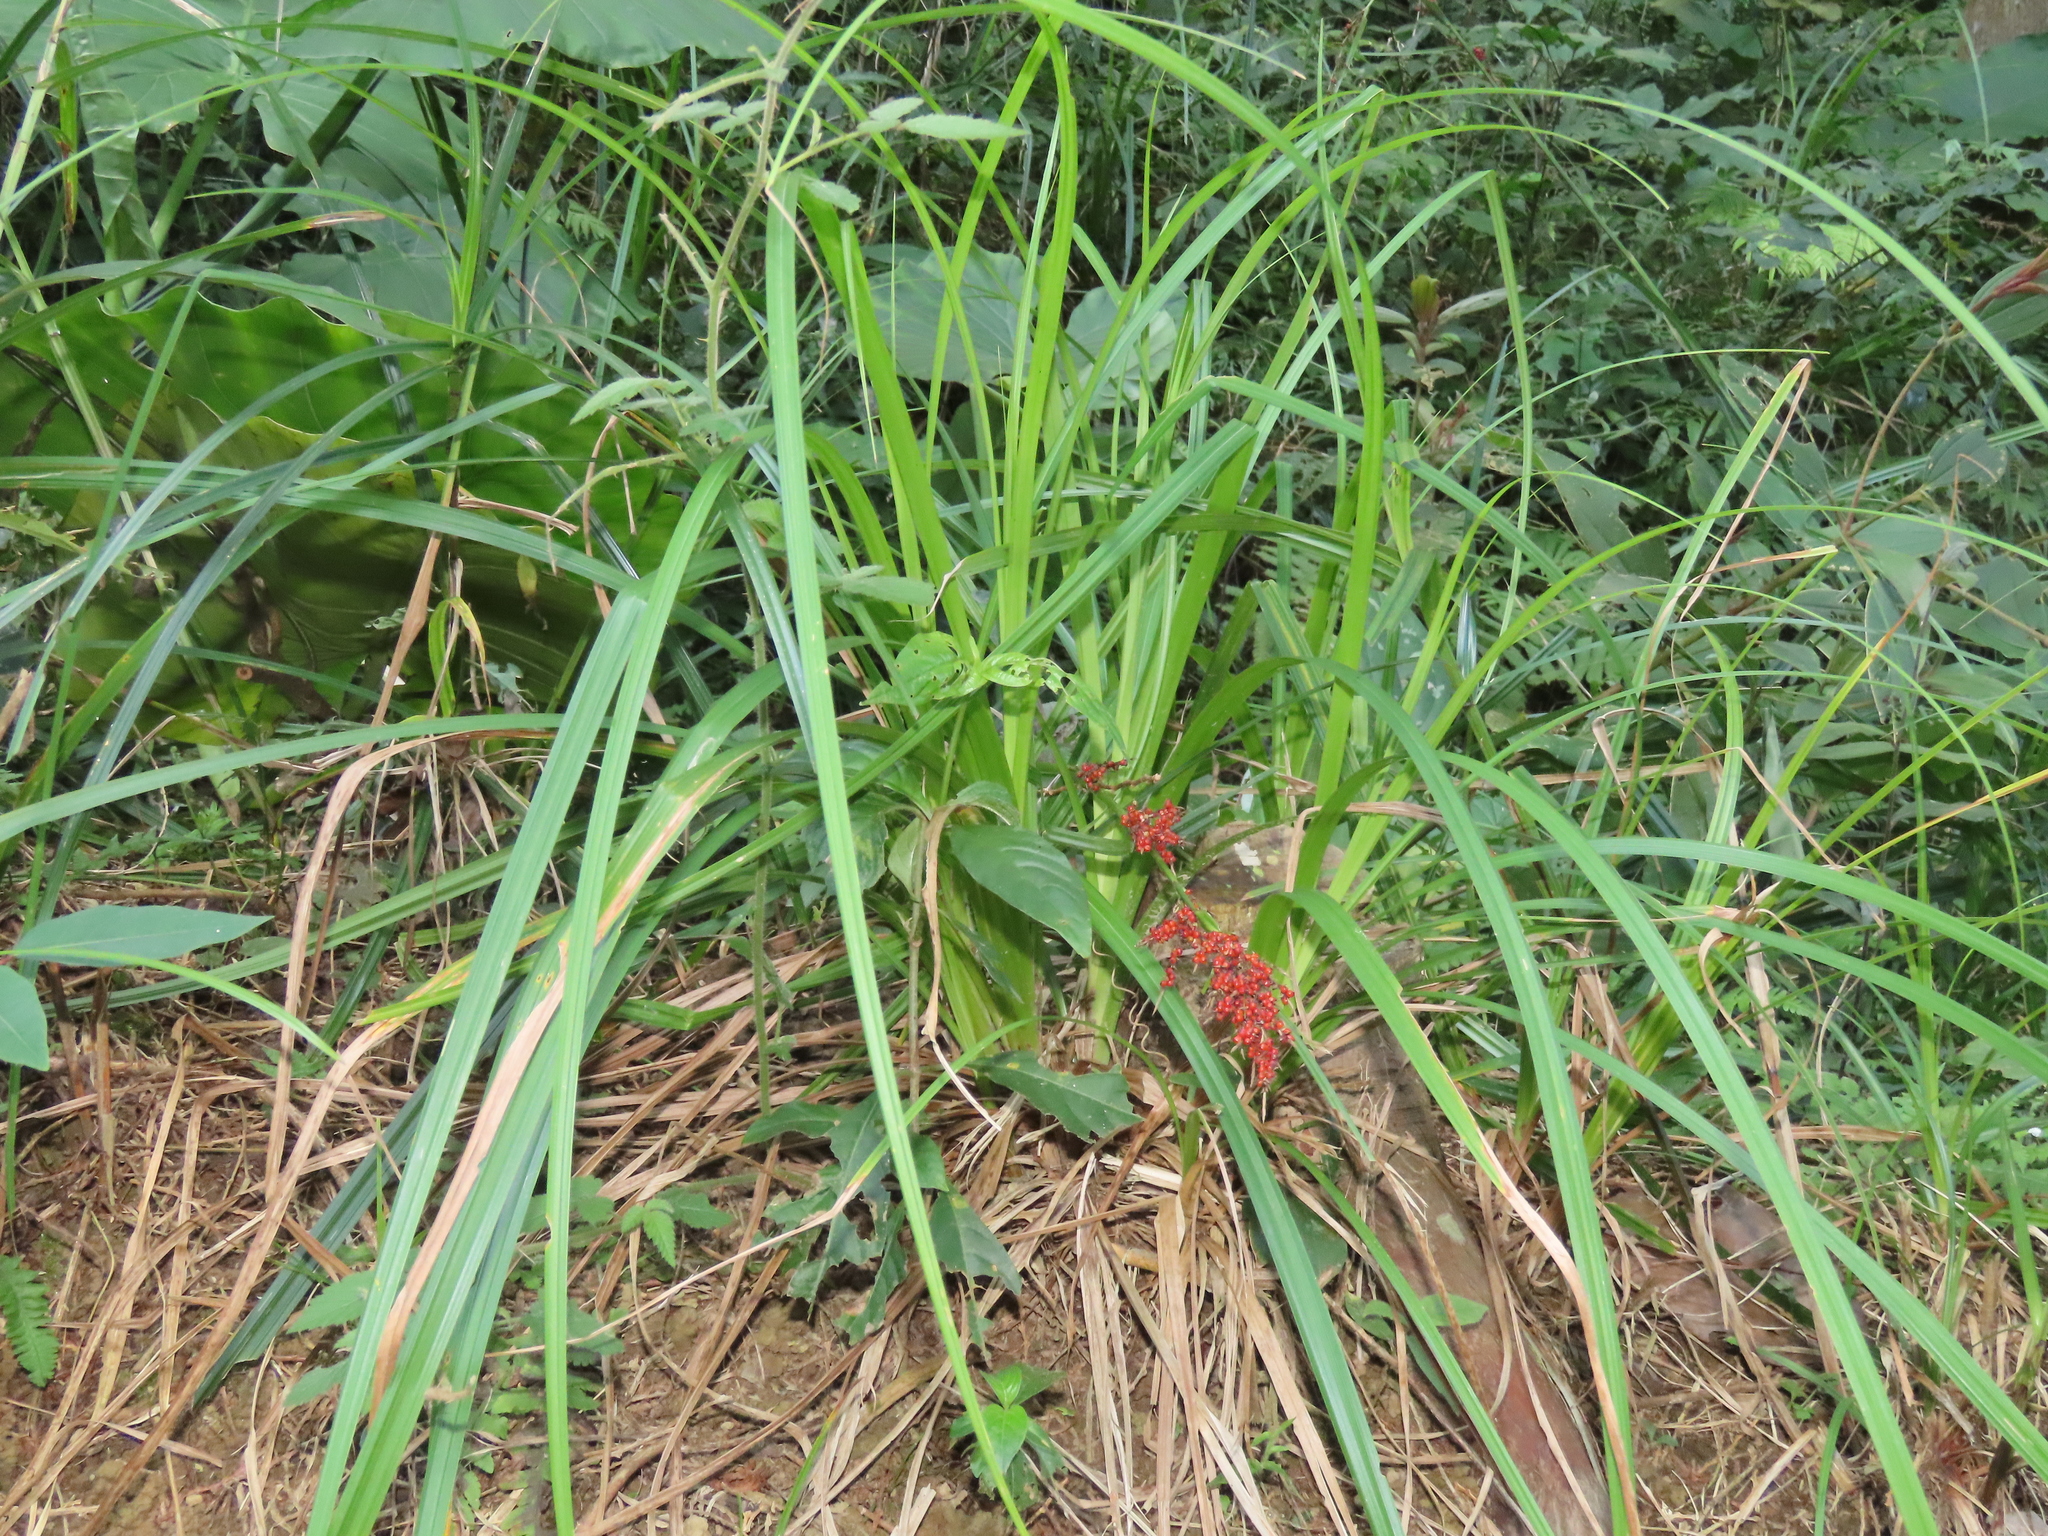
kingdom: Plantae
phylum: Tracheophyta
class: Liliopsida
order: Poales
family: Cyperaceae
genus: Carex
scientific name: Carex baccans
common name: Crimson seeded sedge
